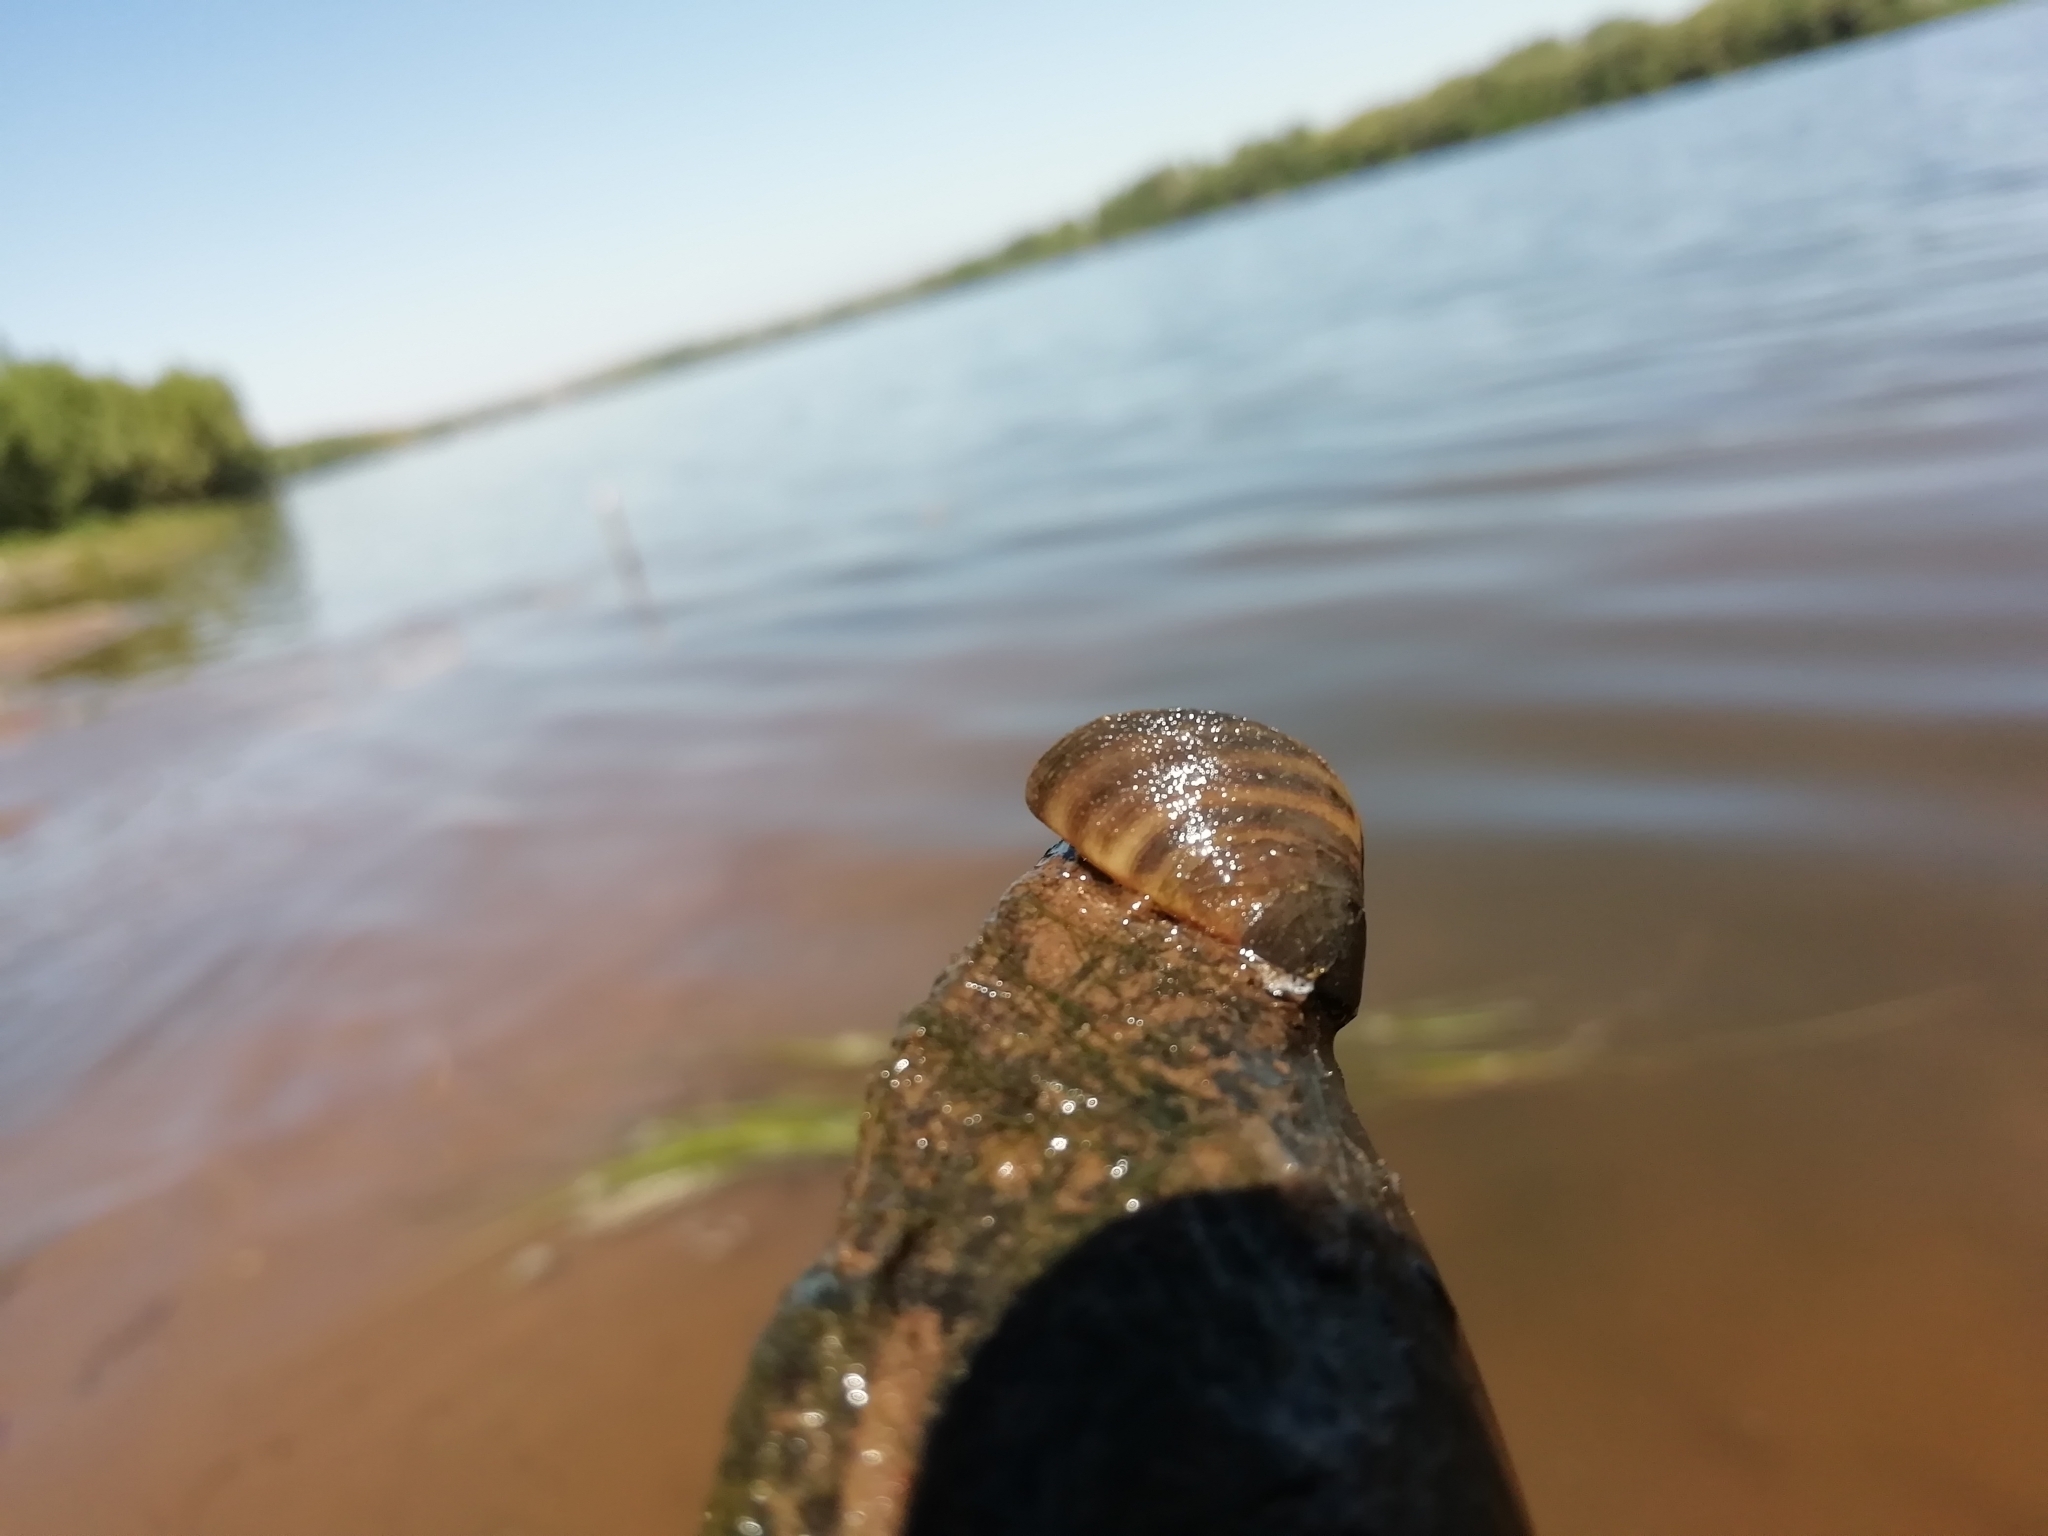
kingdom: Animalia
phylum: Mollusca
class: Bivalvia
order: Myida
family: Dreissenidae
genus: Dreissena
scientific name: Dreissena polymorpha
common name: Zebra mussel
